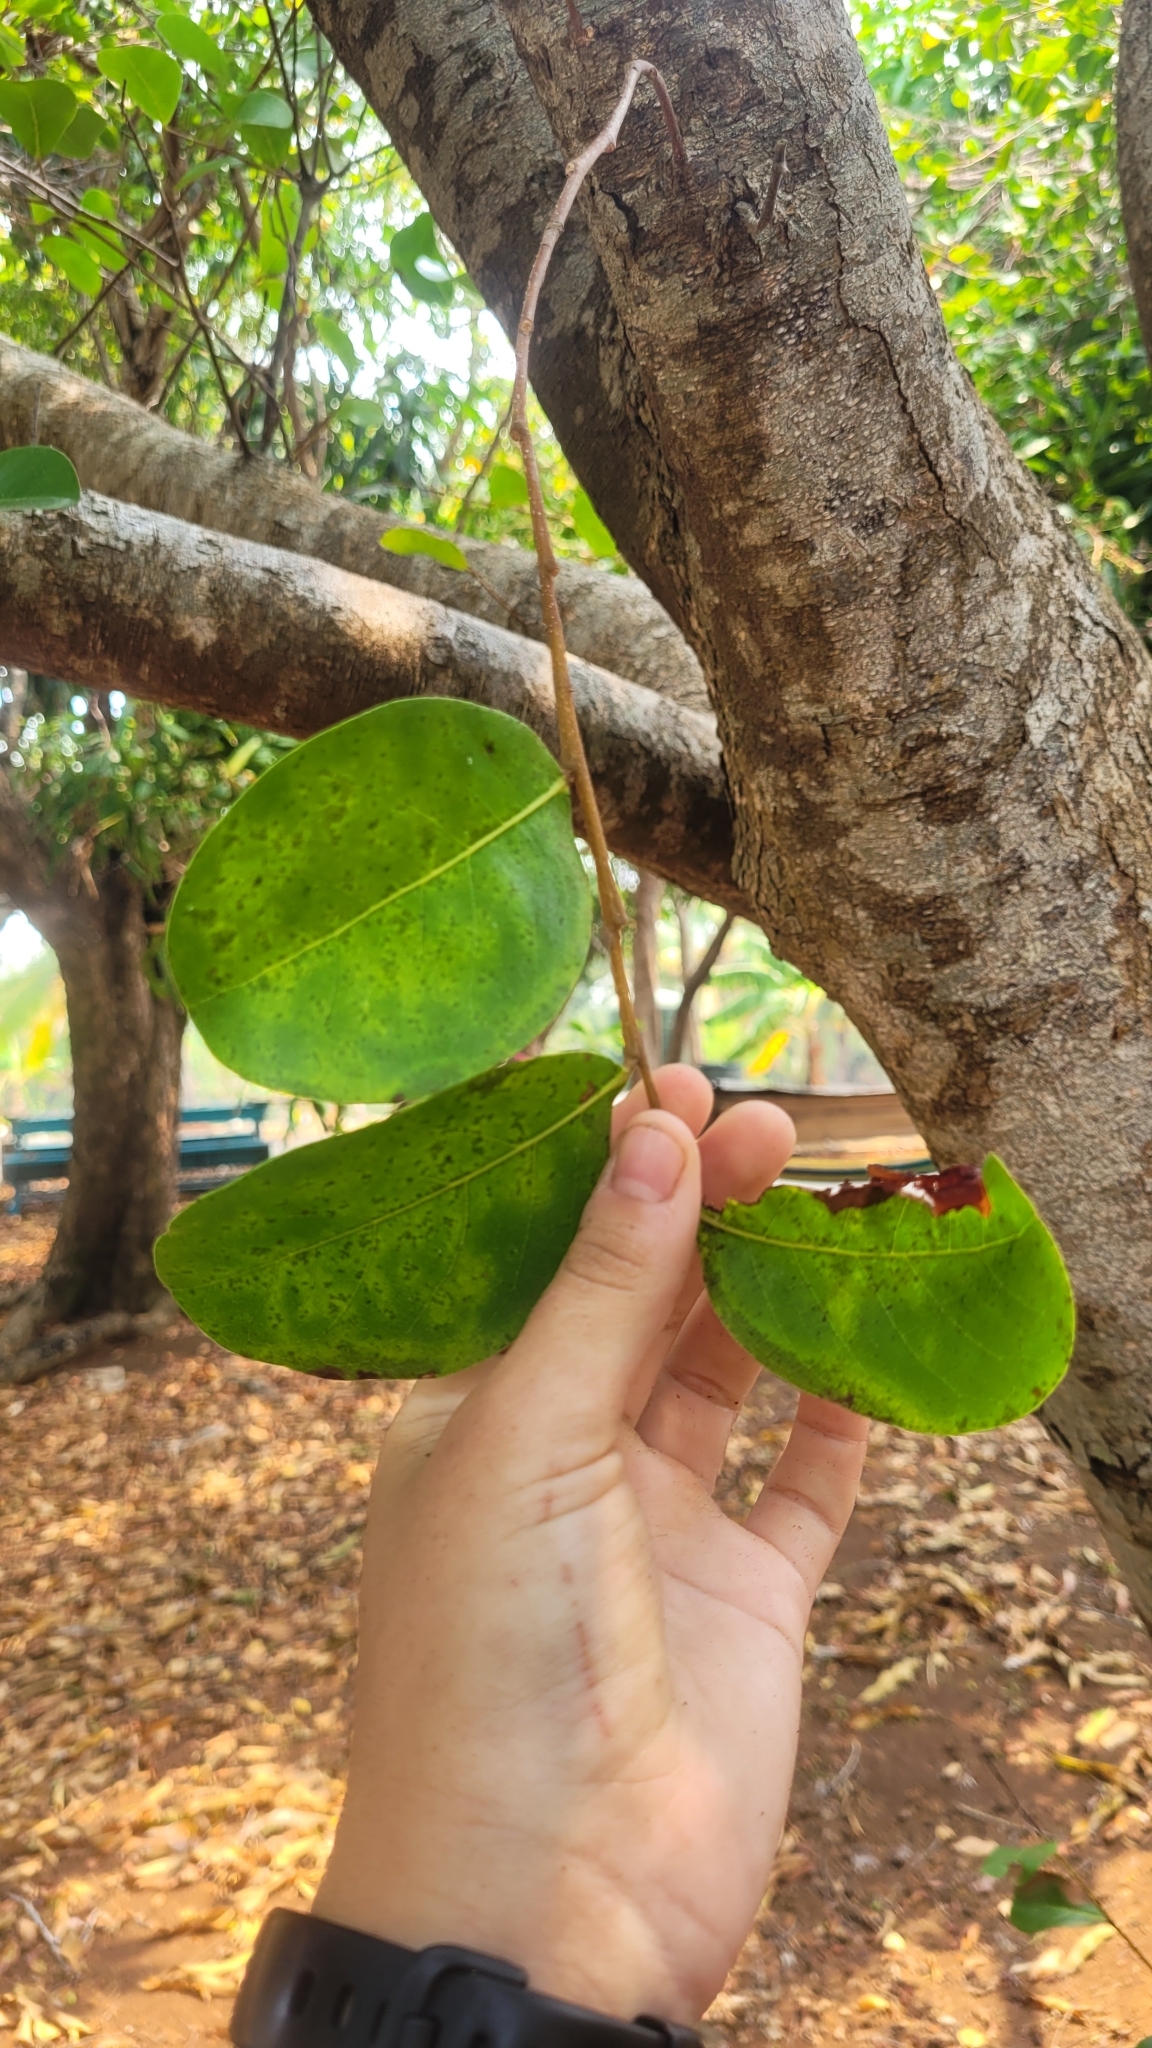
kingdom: Plantae
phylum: Tracheophyta
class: Magnoliopsida
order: Malpighiales
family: Chrysobalanaceae
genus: Chrysobalanus
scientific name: Chrysobalanus icaco
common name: Coco plum
